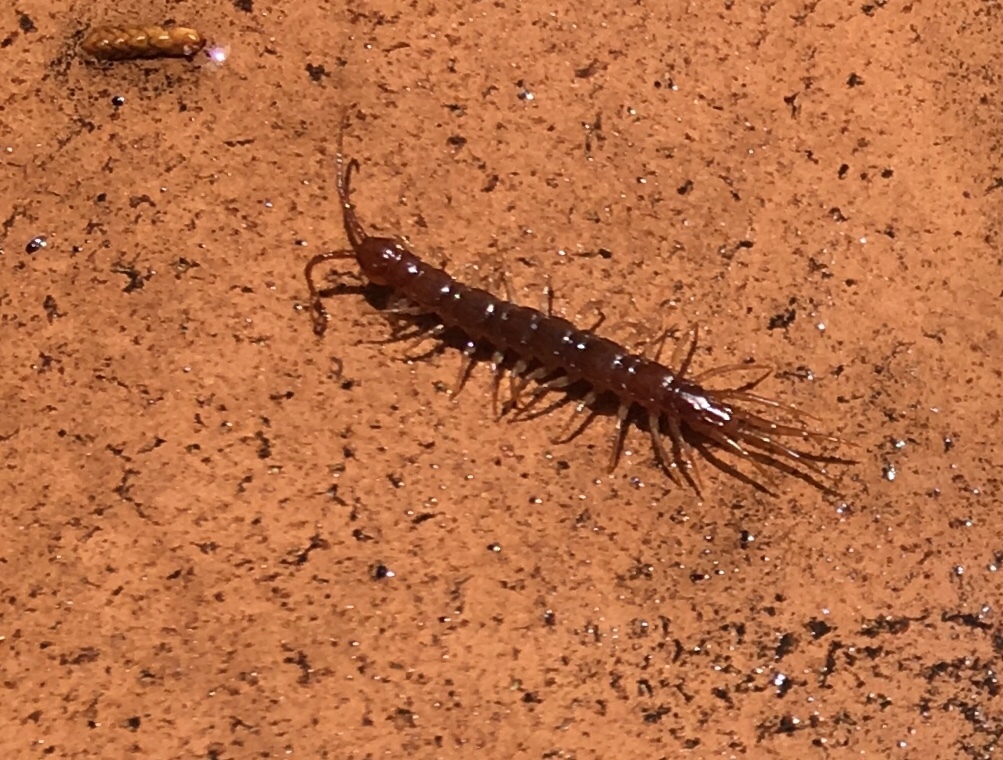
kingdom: Animalia
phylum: Arthropoda
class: Chilopoda
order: Lithobiomorpha
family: Lithobiidae
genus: Lithobius
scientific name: Lithobius forficatus
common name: Centipede
